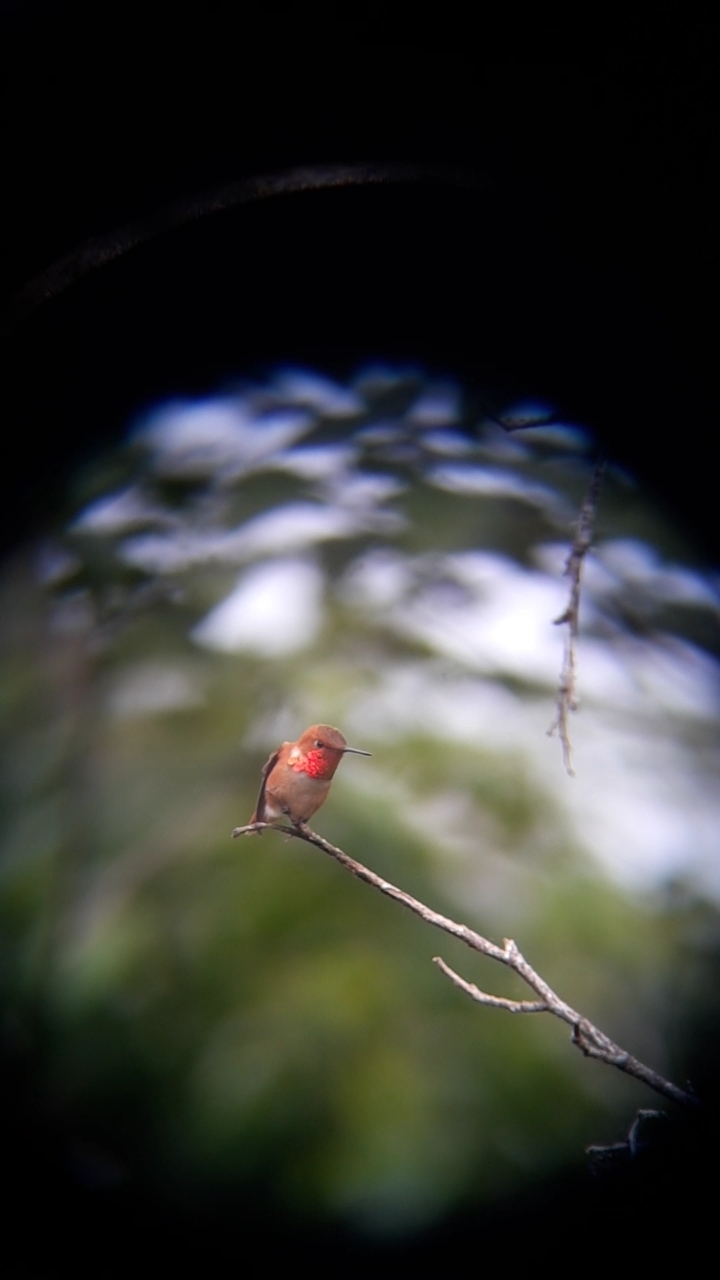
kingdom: Animalia
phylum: Chordata
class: Aves
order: Apodiformes
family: Trochilidae
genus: Selasphorus
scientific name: Selasphorus rufus
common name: Rufous hummingbird
